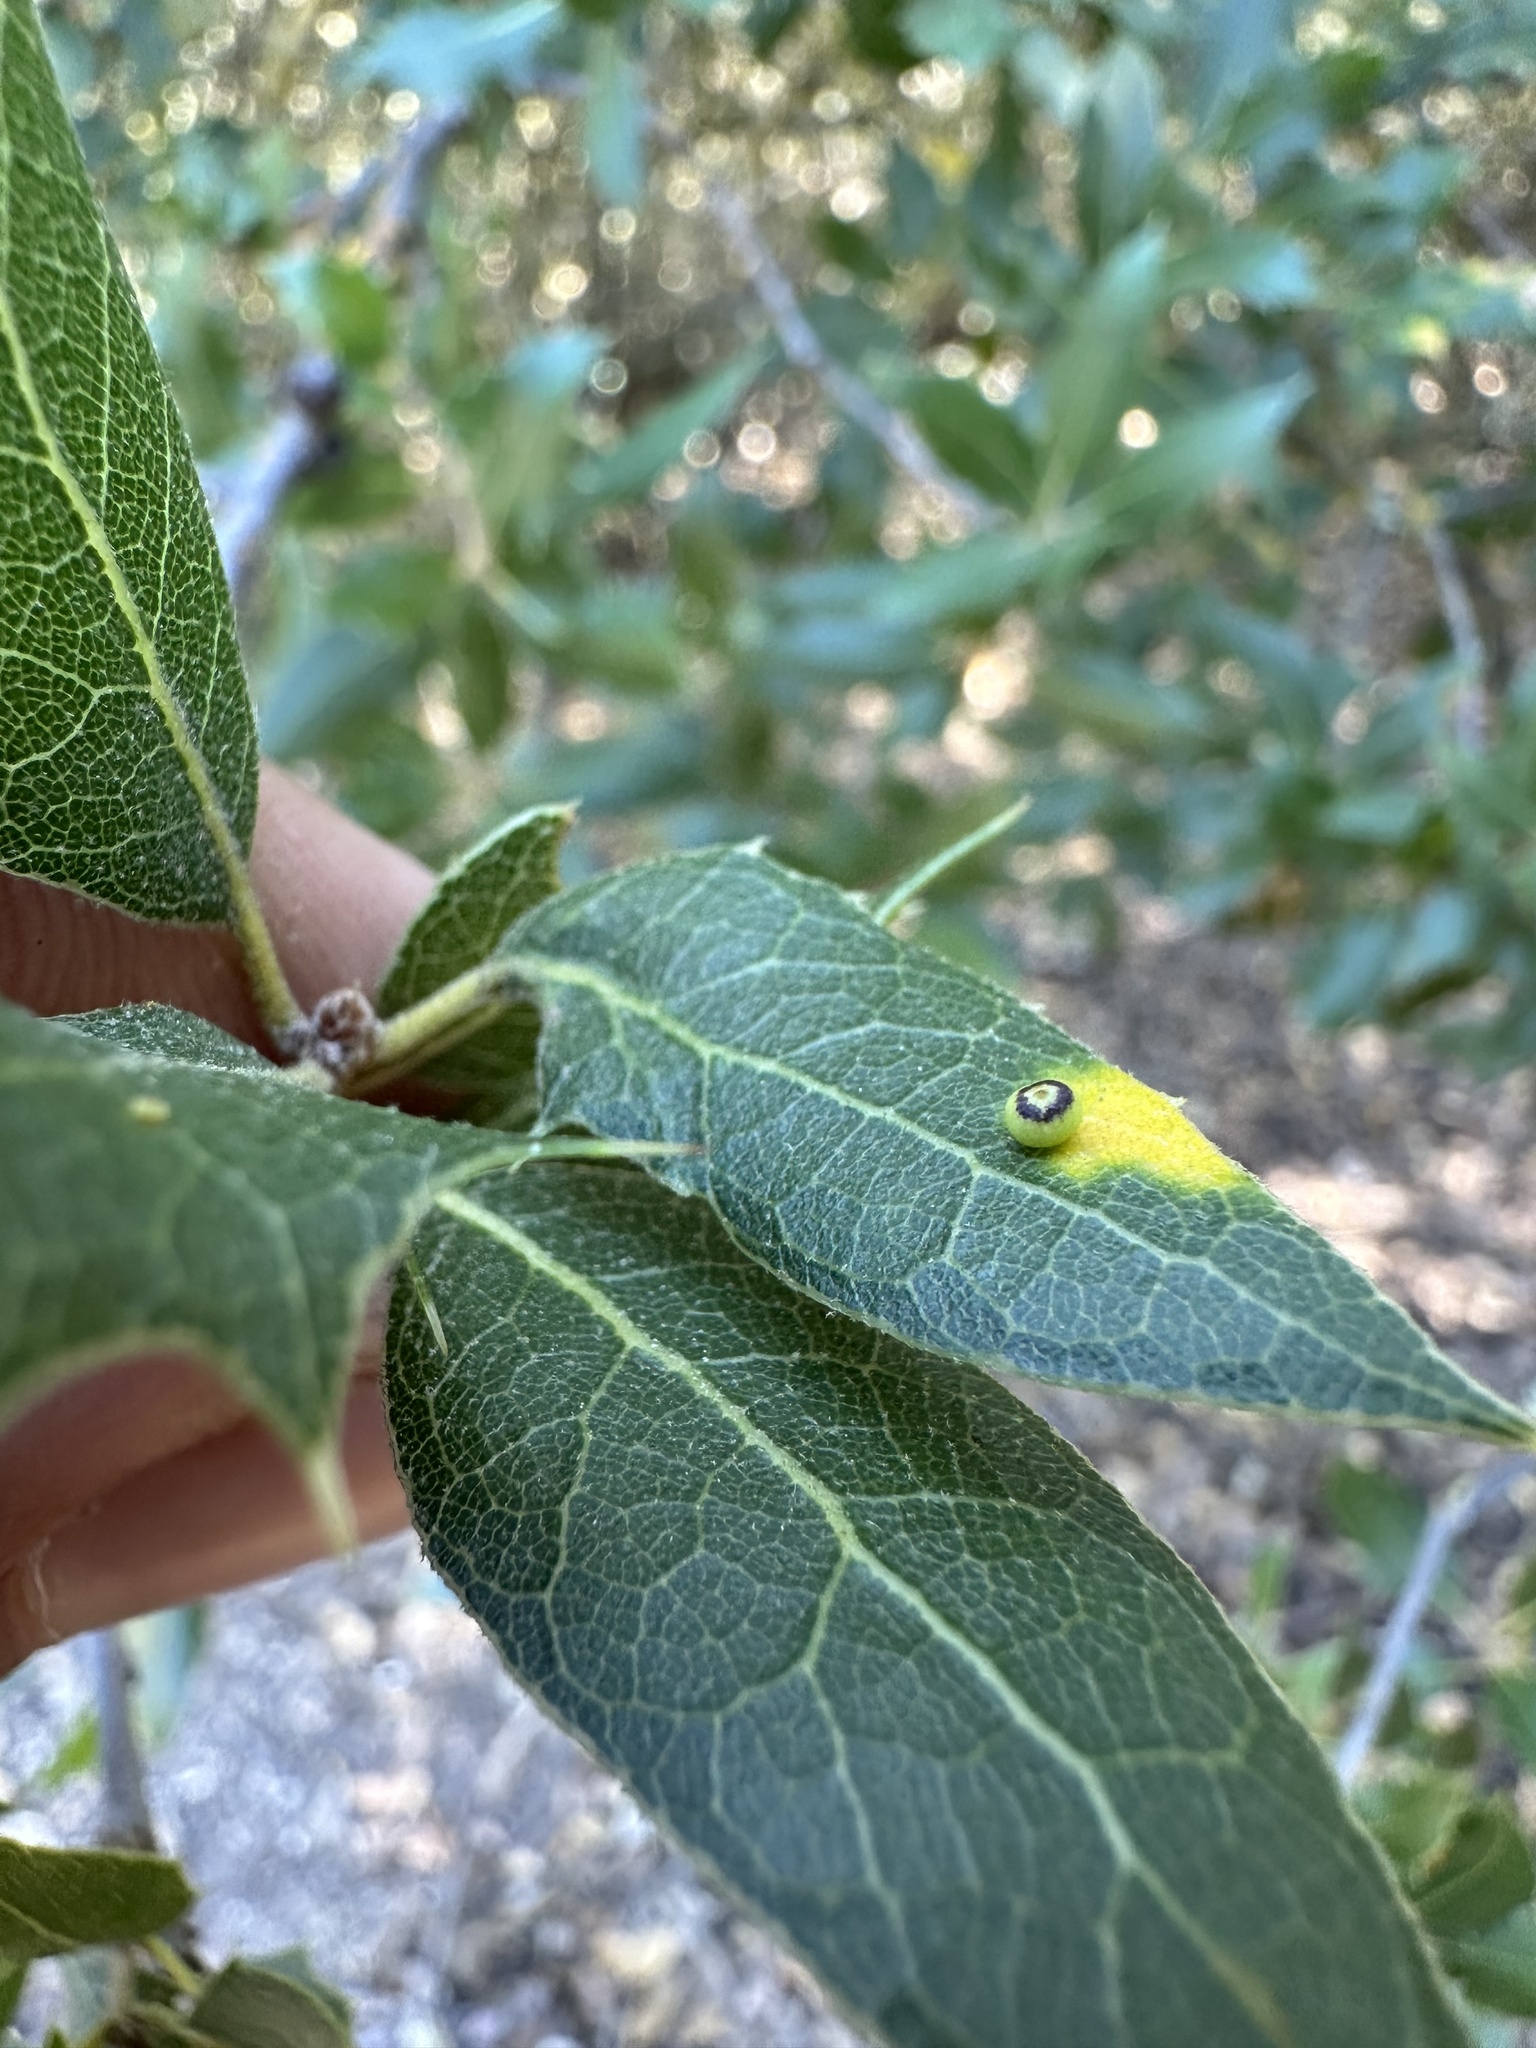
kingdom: Animalia
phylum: Arthropoda
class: Insecta
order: Hymenoptera
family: Cynipidae
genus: Dryocosmus
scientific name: Dryocosmus
